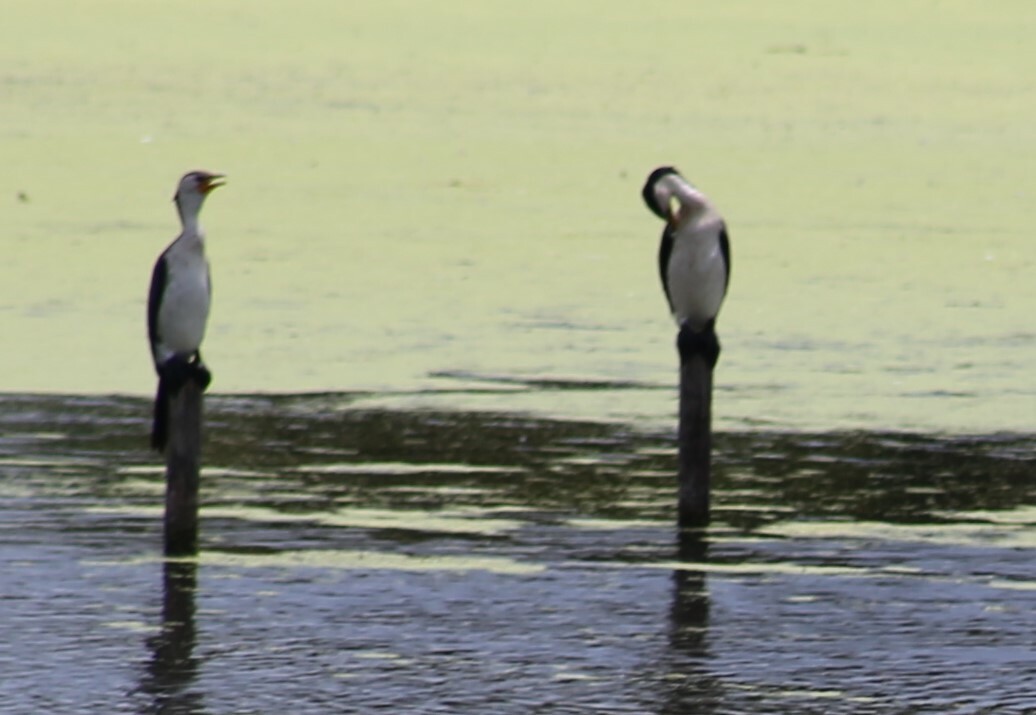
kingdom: Animalia
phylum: Chordata
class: Aves
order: Suliformes
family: Phalacrocoracidae
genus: Microcarbo
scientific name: Microcarbo melanoleucos
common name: Little pied cormorant
